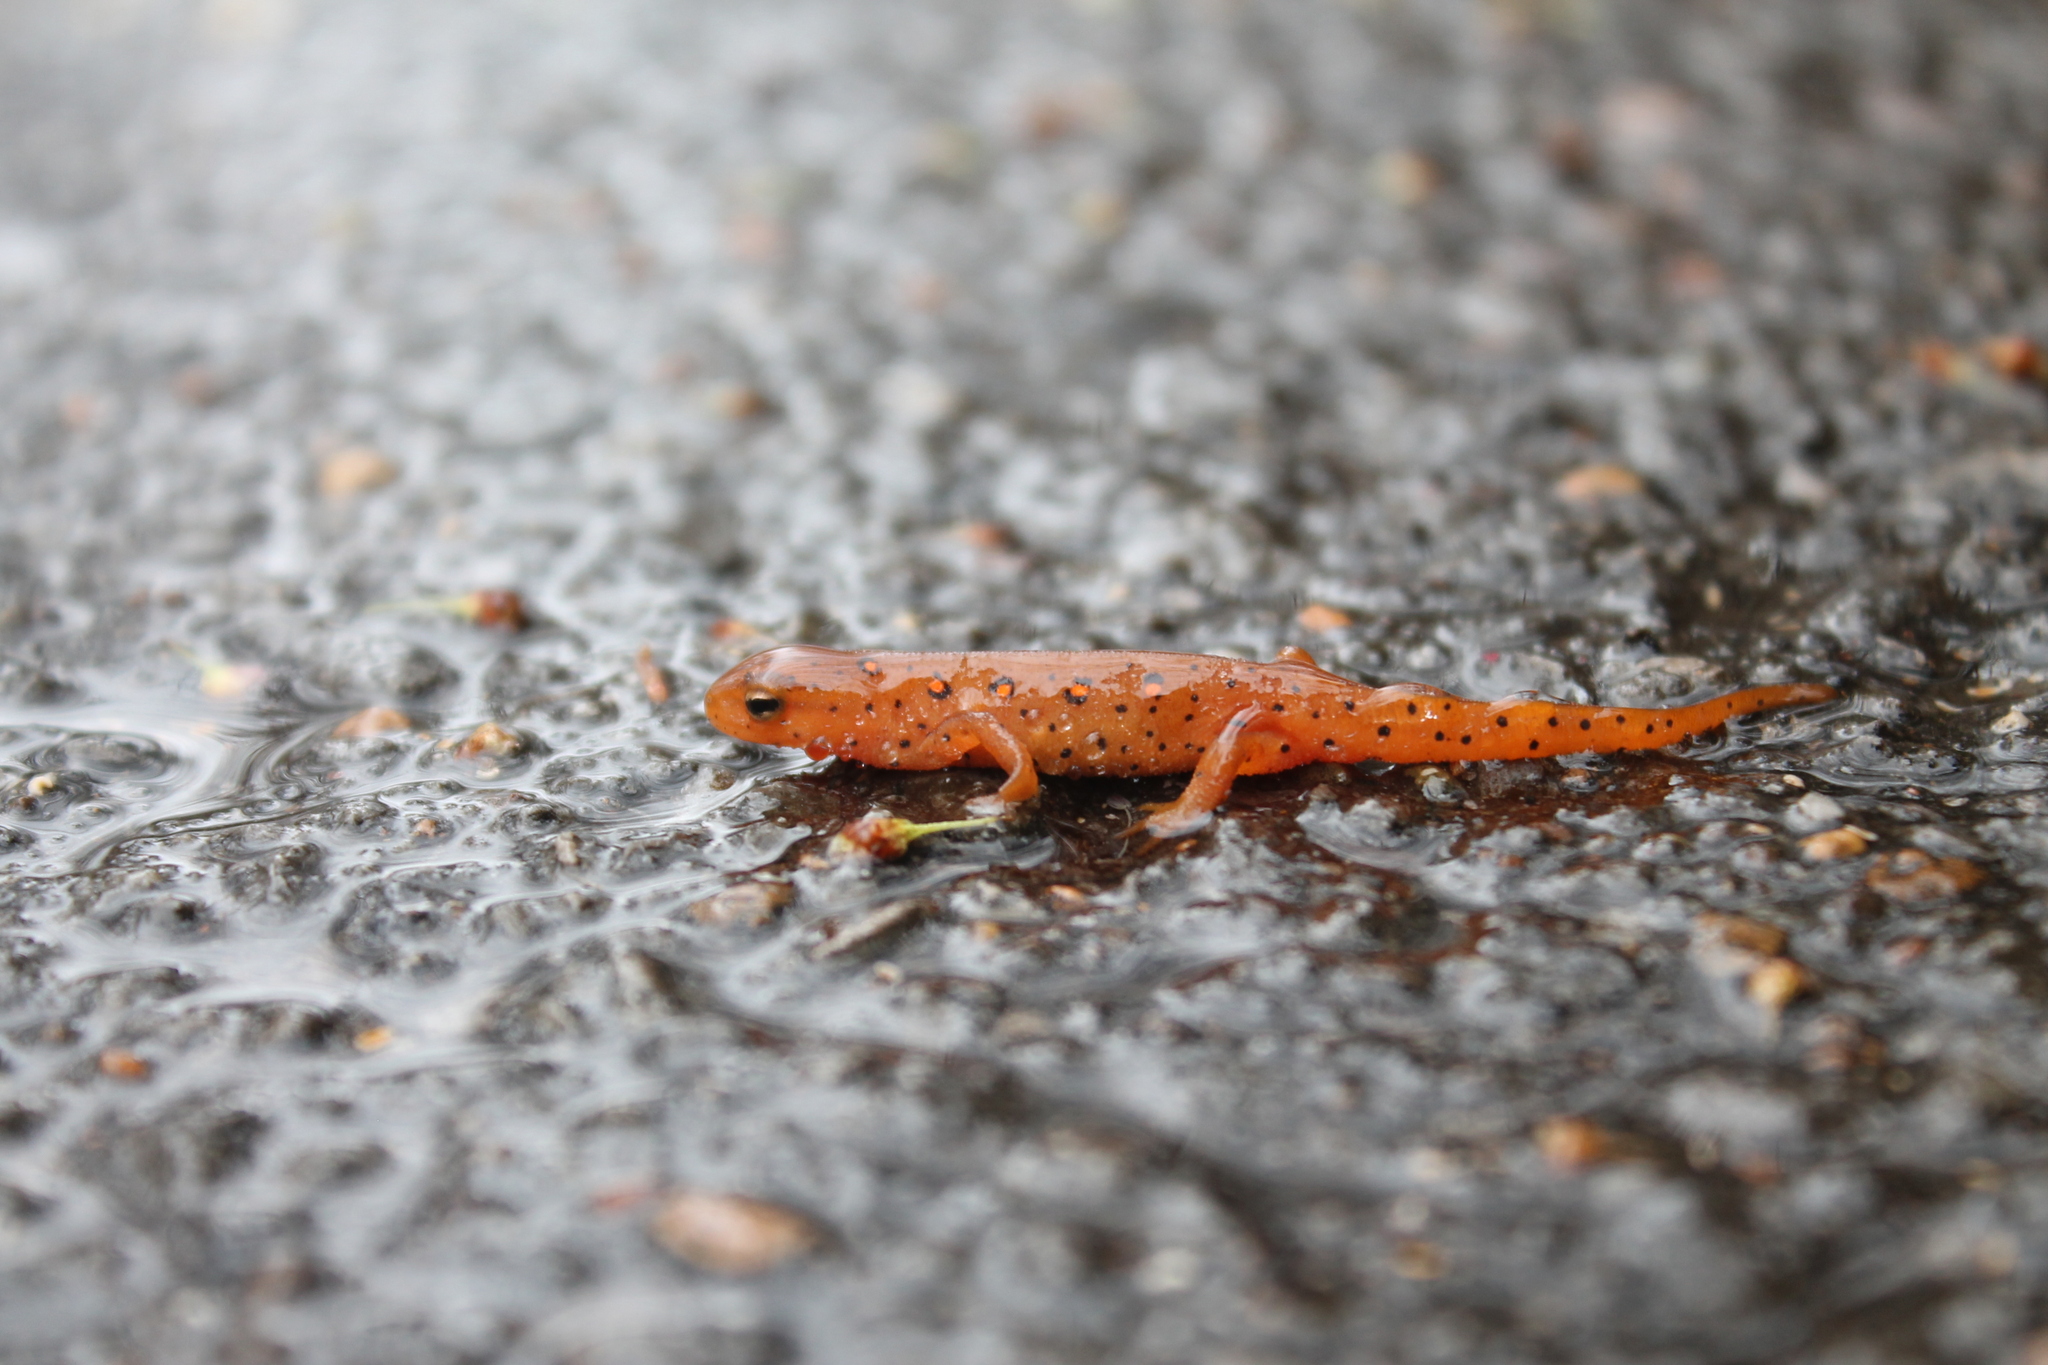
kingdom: Animalia
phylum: Chordata
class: Amphibia
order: Caudata
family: Salamandridae
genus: Notophthalmus
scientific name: Notophthalmus viridescens
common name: Eastern newt
